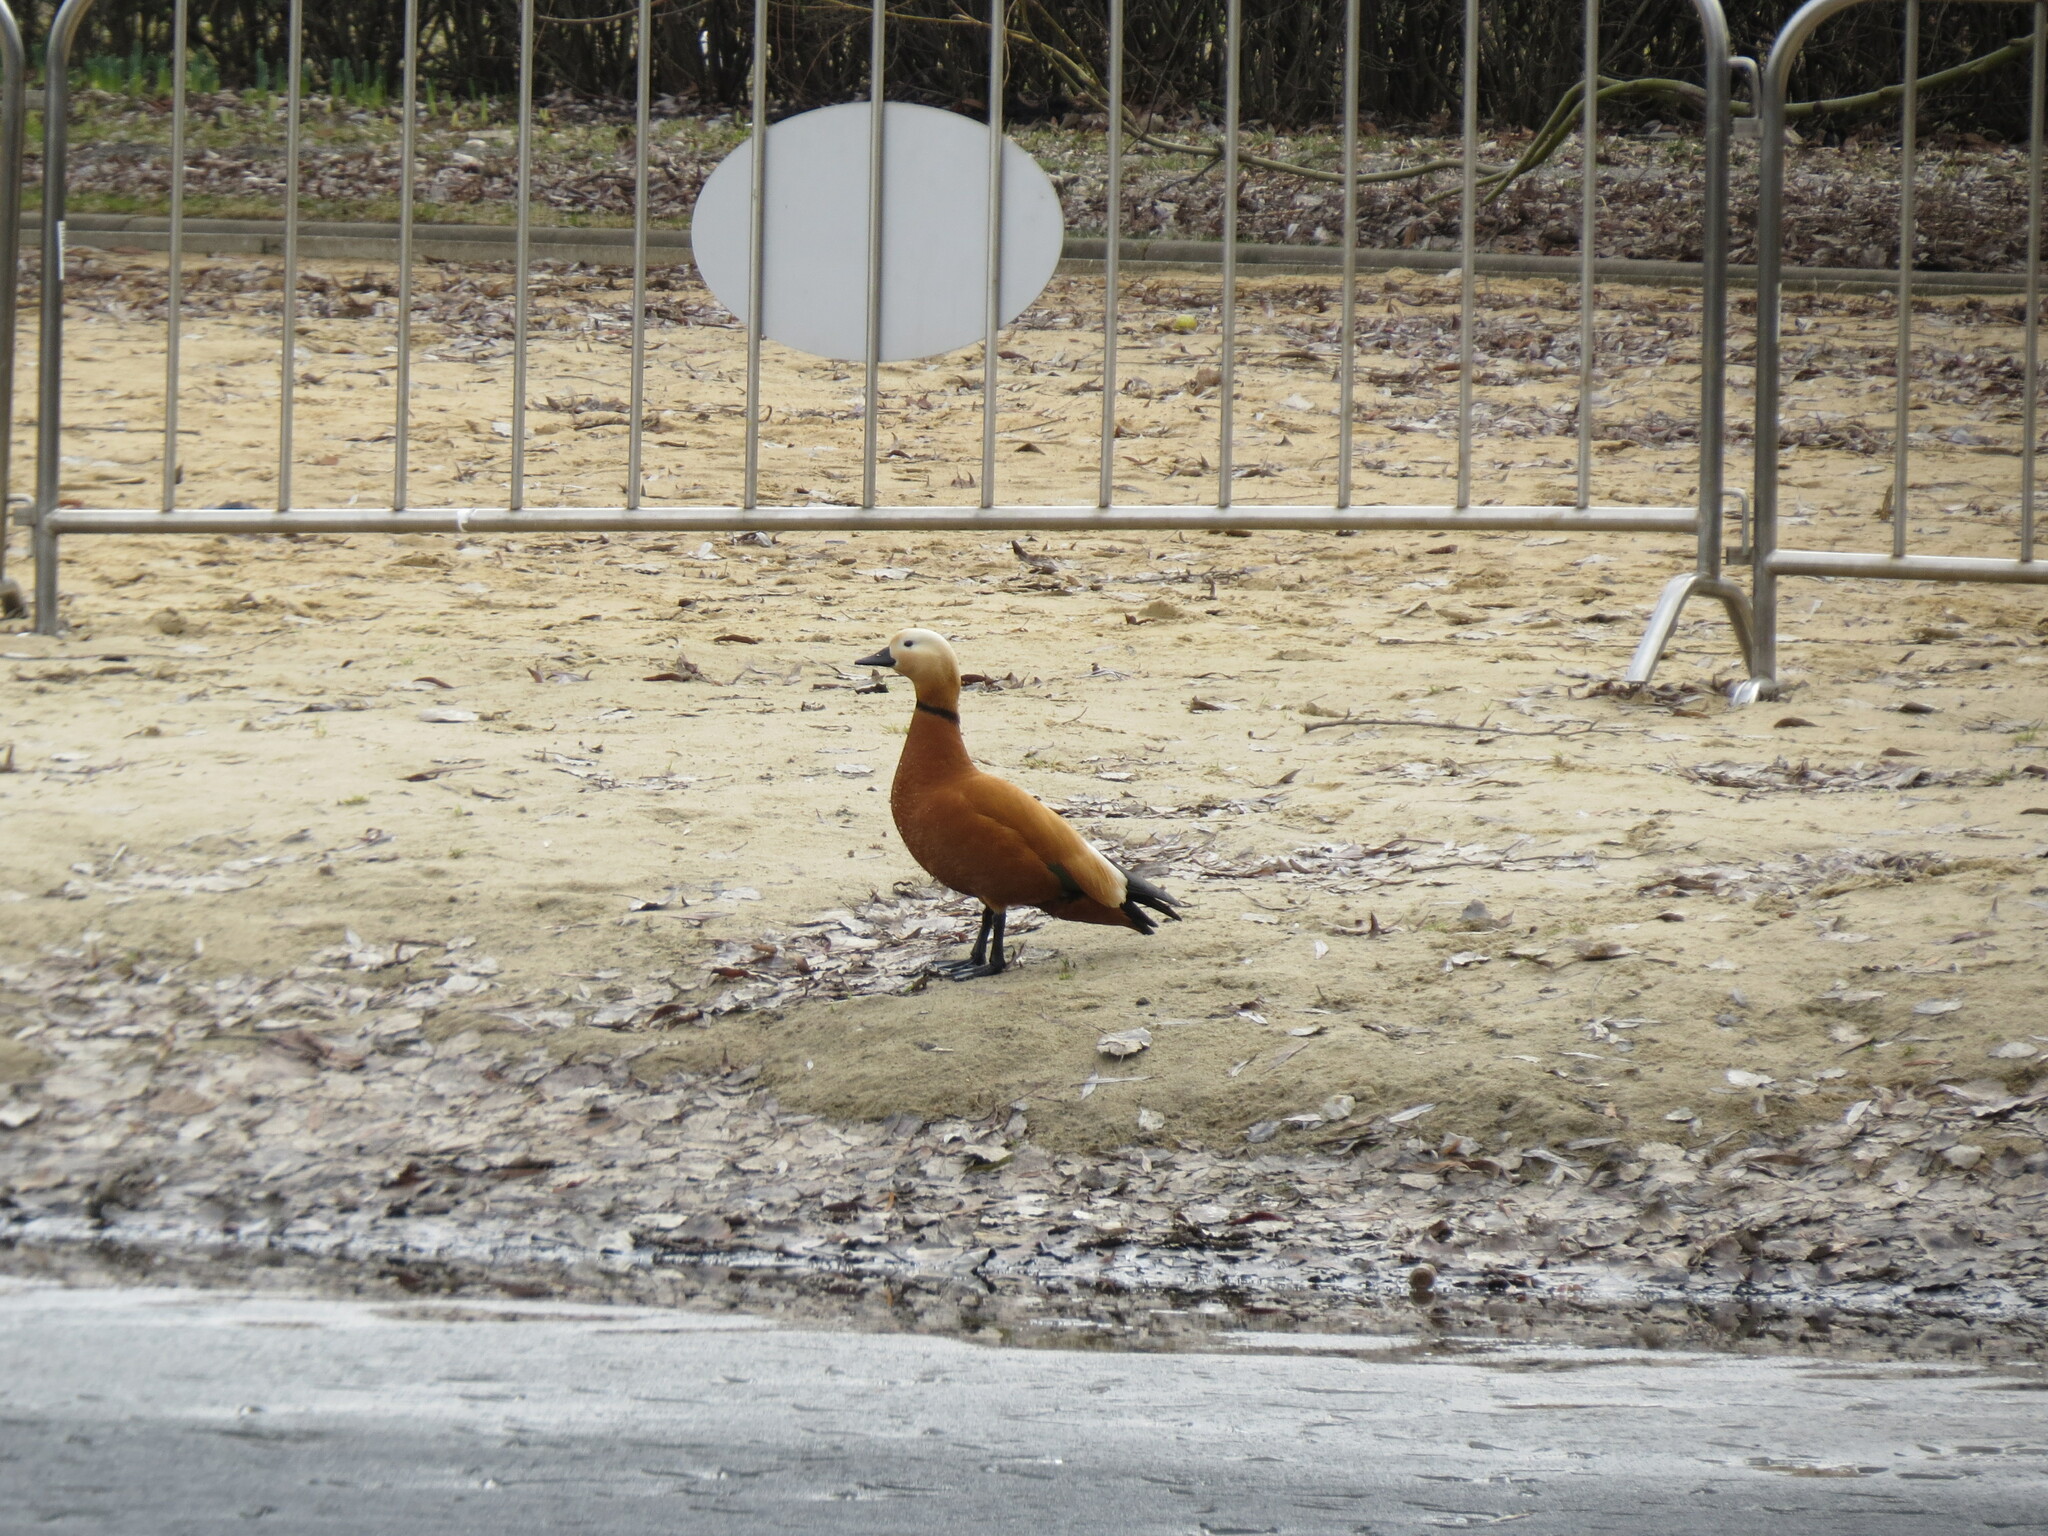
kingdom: Animalia
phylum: Chordata
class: Aves
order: Anseriformes
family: Anatidae
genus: Tadorna
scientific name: Tadorna ferruginea
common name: Ruddy shelduck
